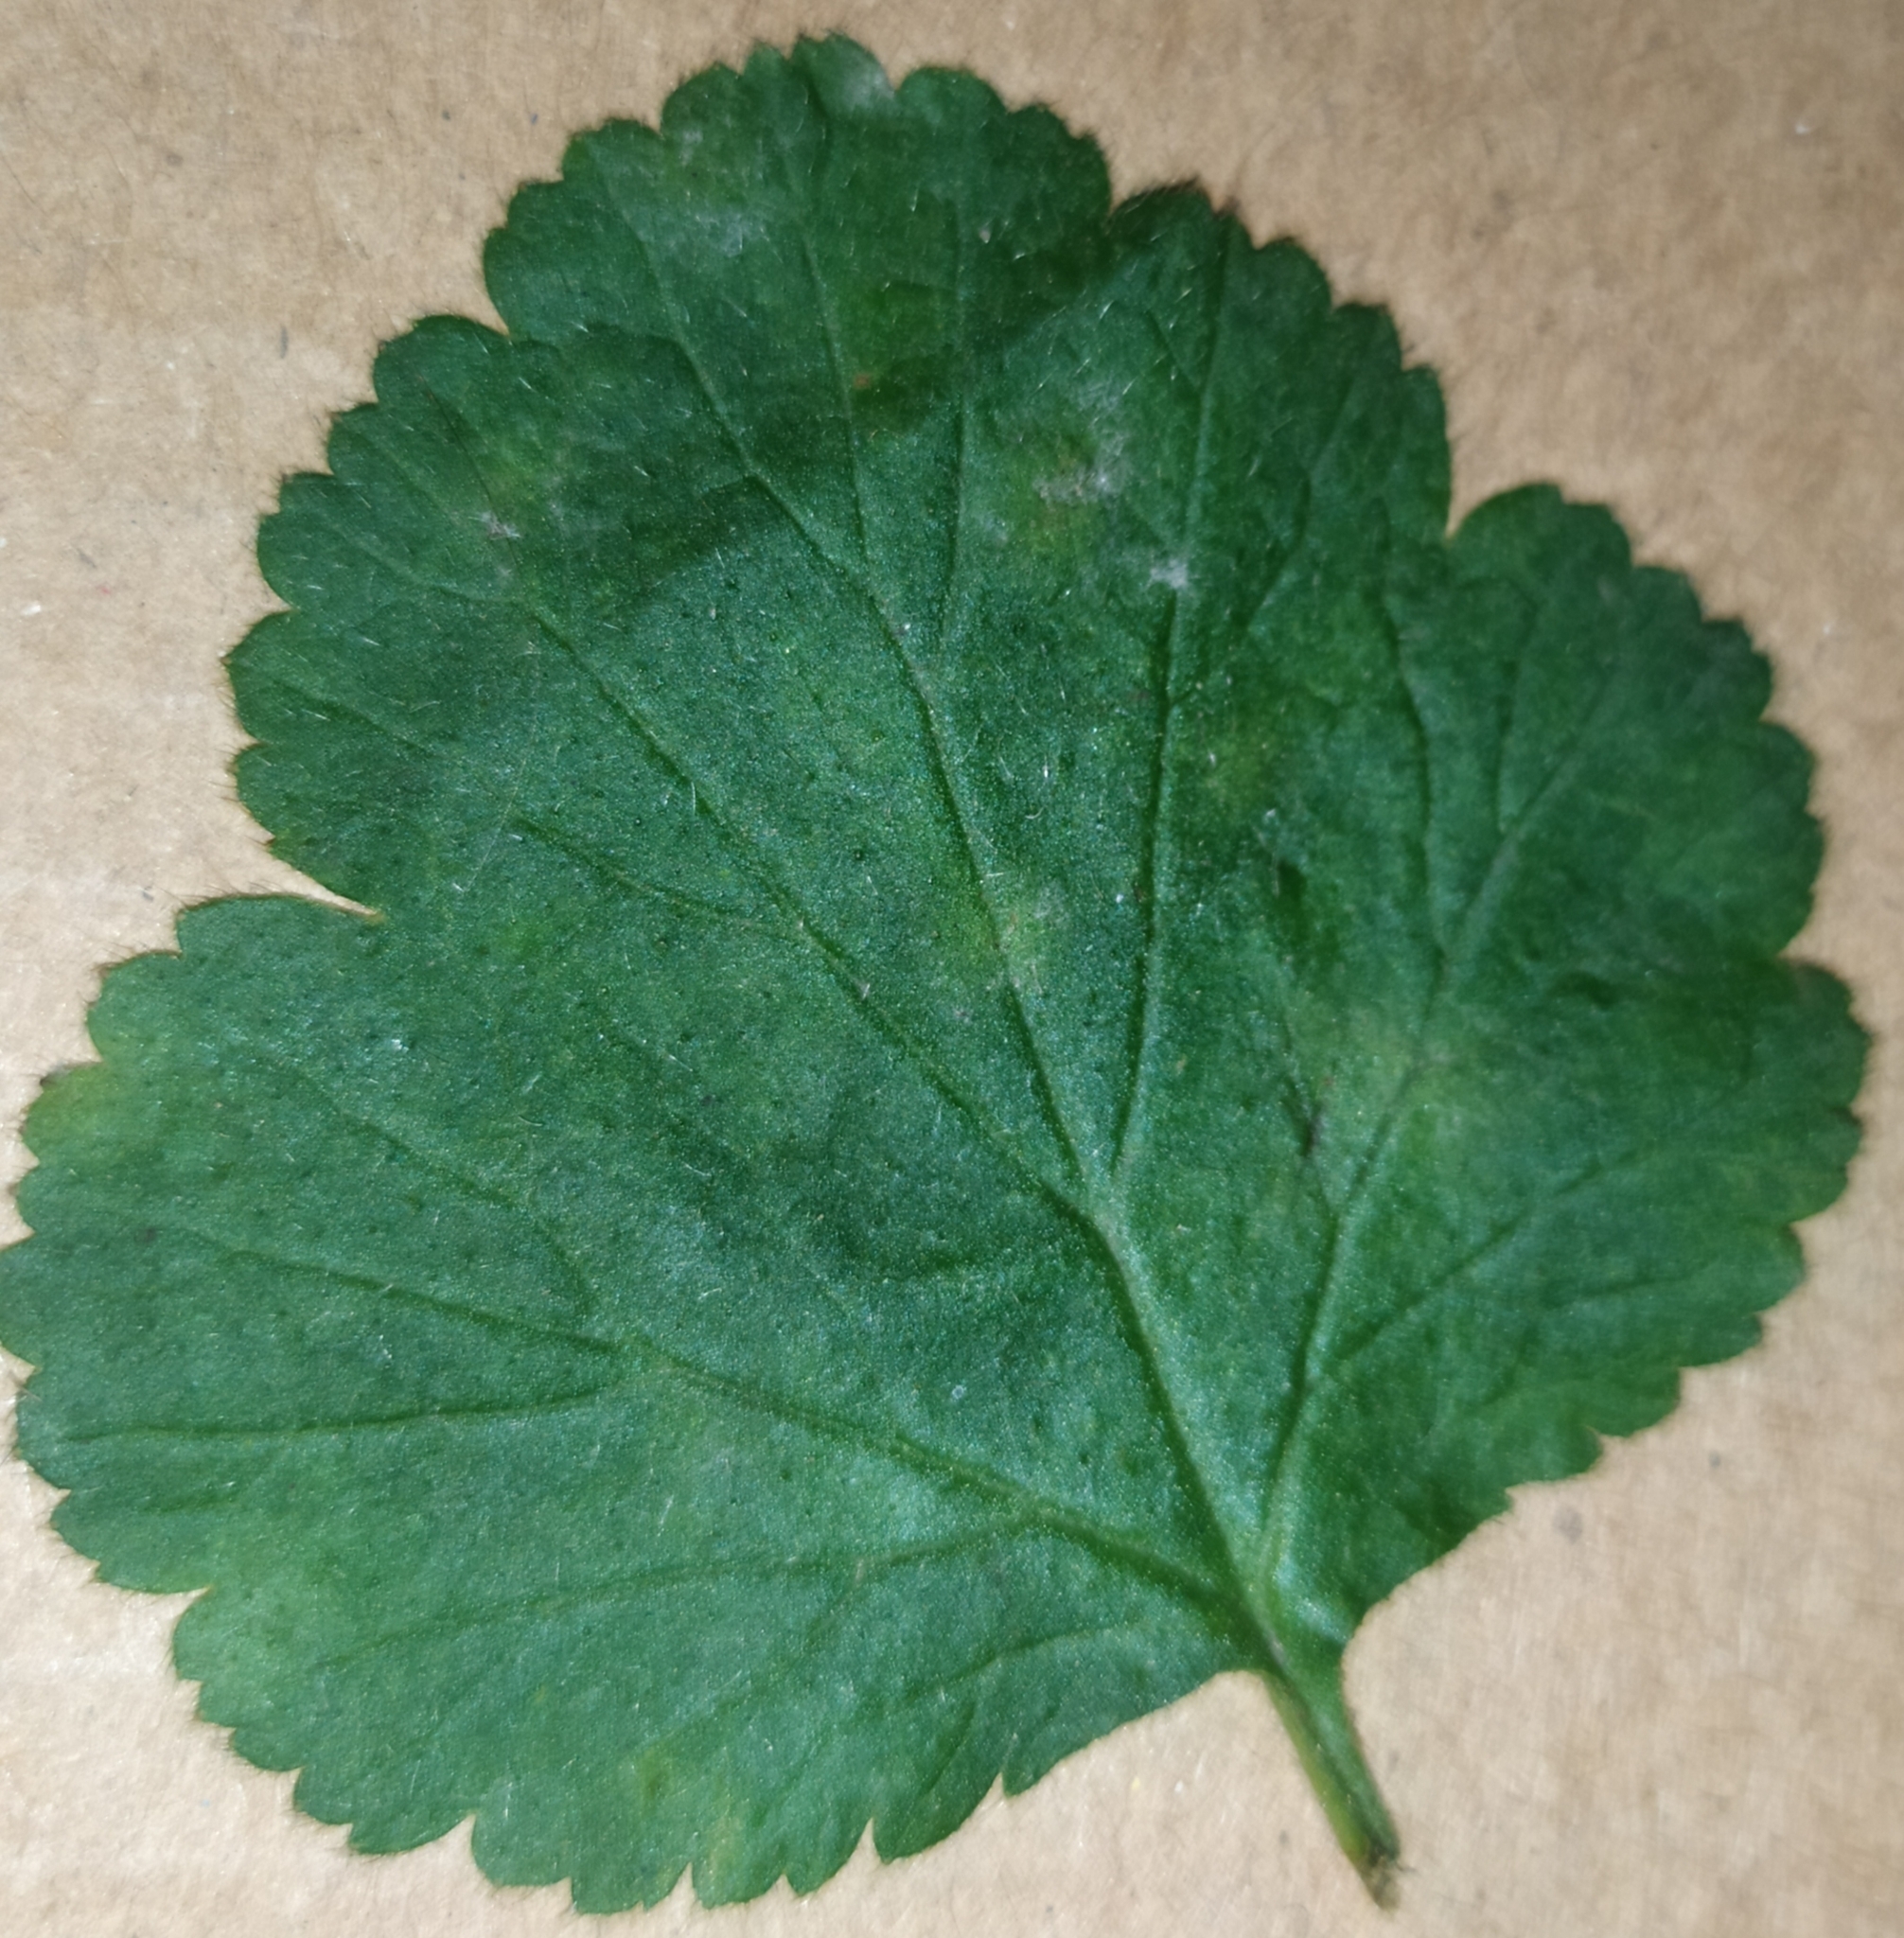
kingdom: Fungi
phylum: Ascomycota
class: Leotiomycetes
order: Helotiales
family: Erysiphaceae
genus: Podosphaera
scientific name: Podosphaera aphanis
